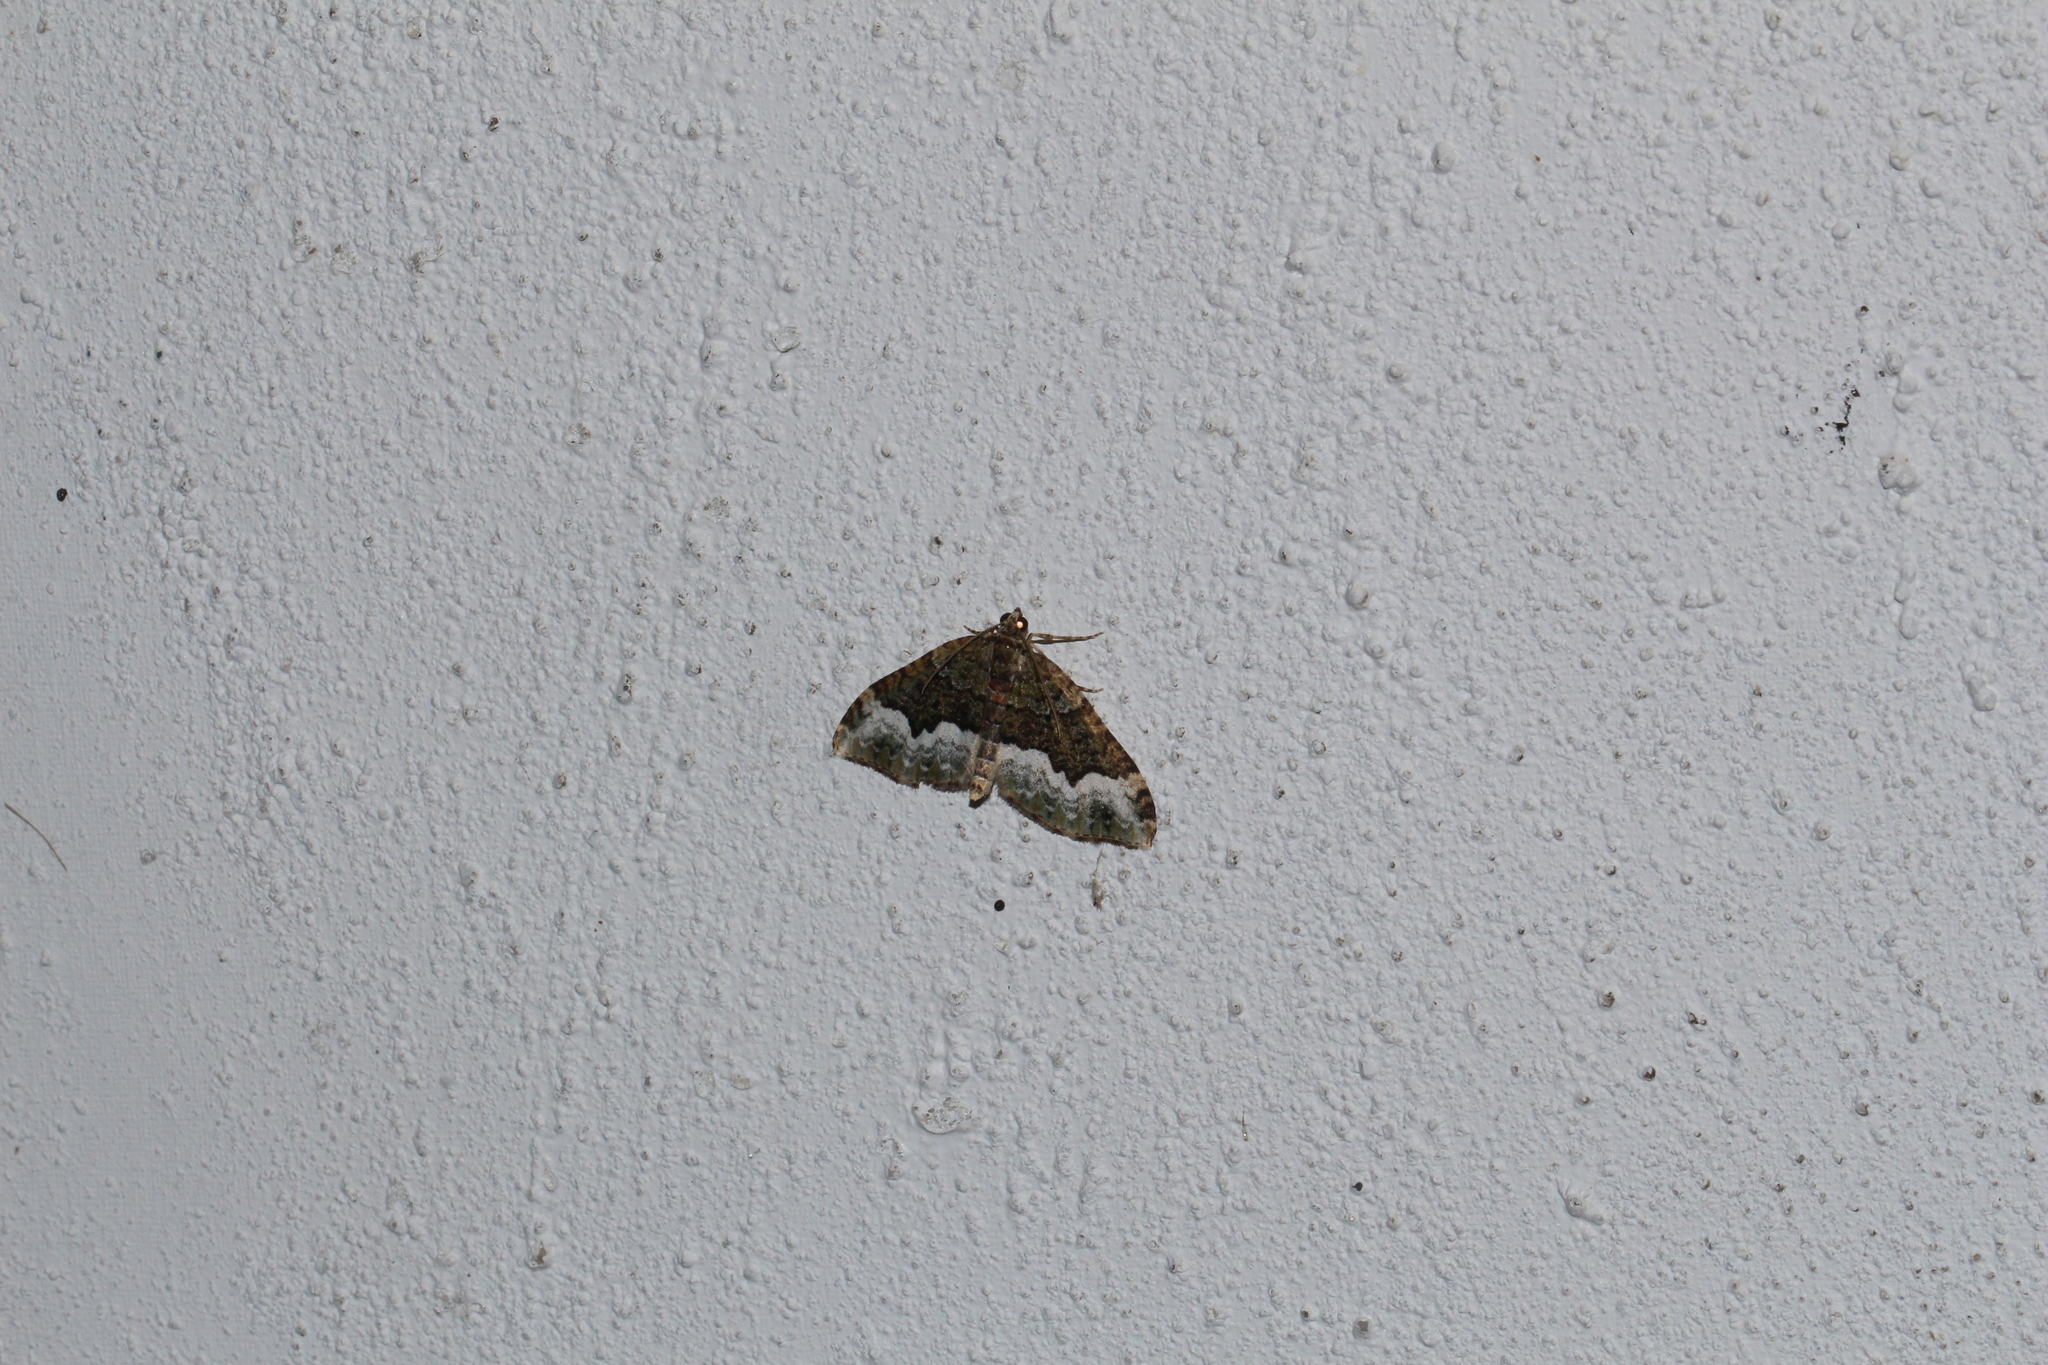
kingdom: Animalia
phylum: Arthropoda
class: Insecta
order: Lepidoptera
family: Geometridae
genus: Euphyia
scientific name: Euphyia biangulata
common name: Cloaked carpet
